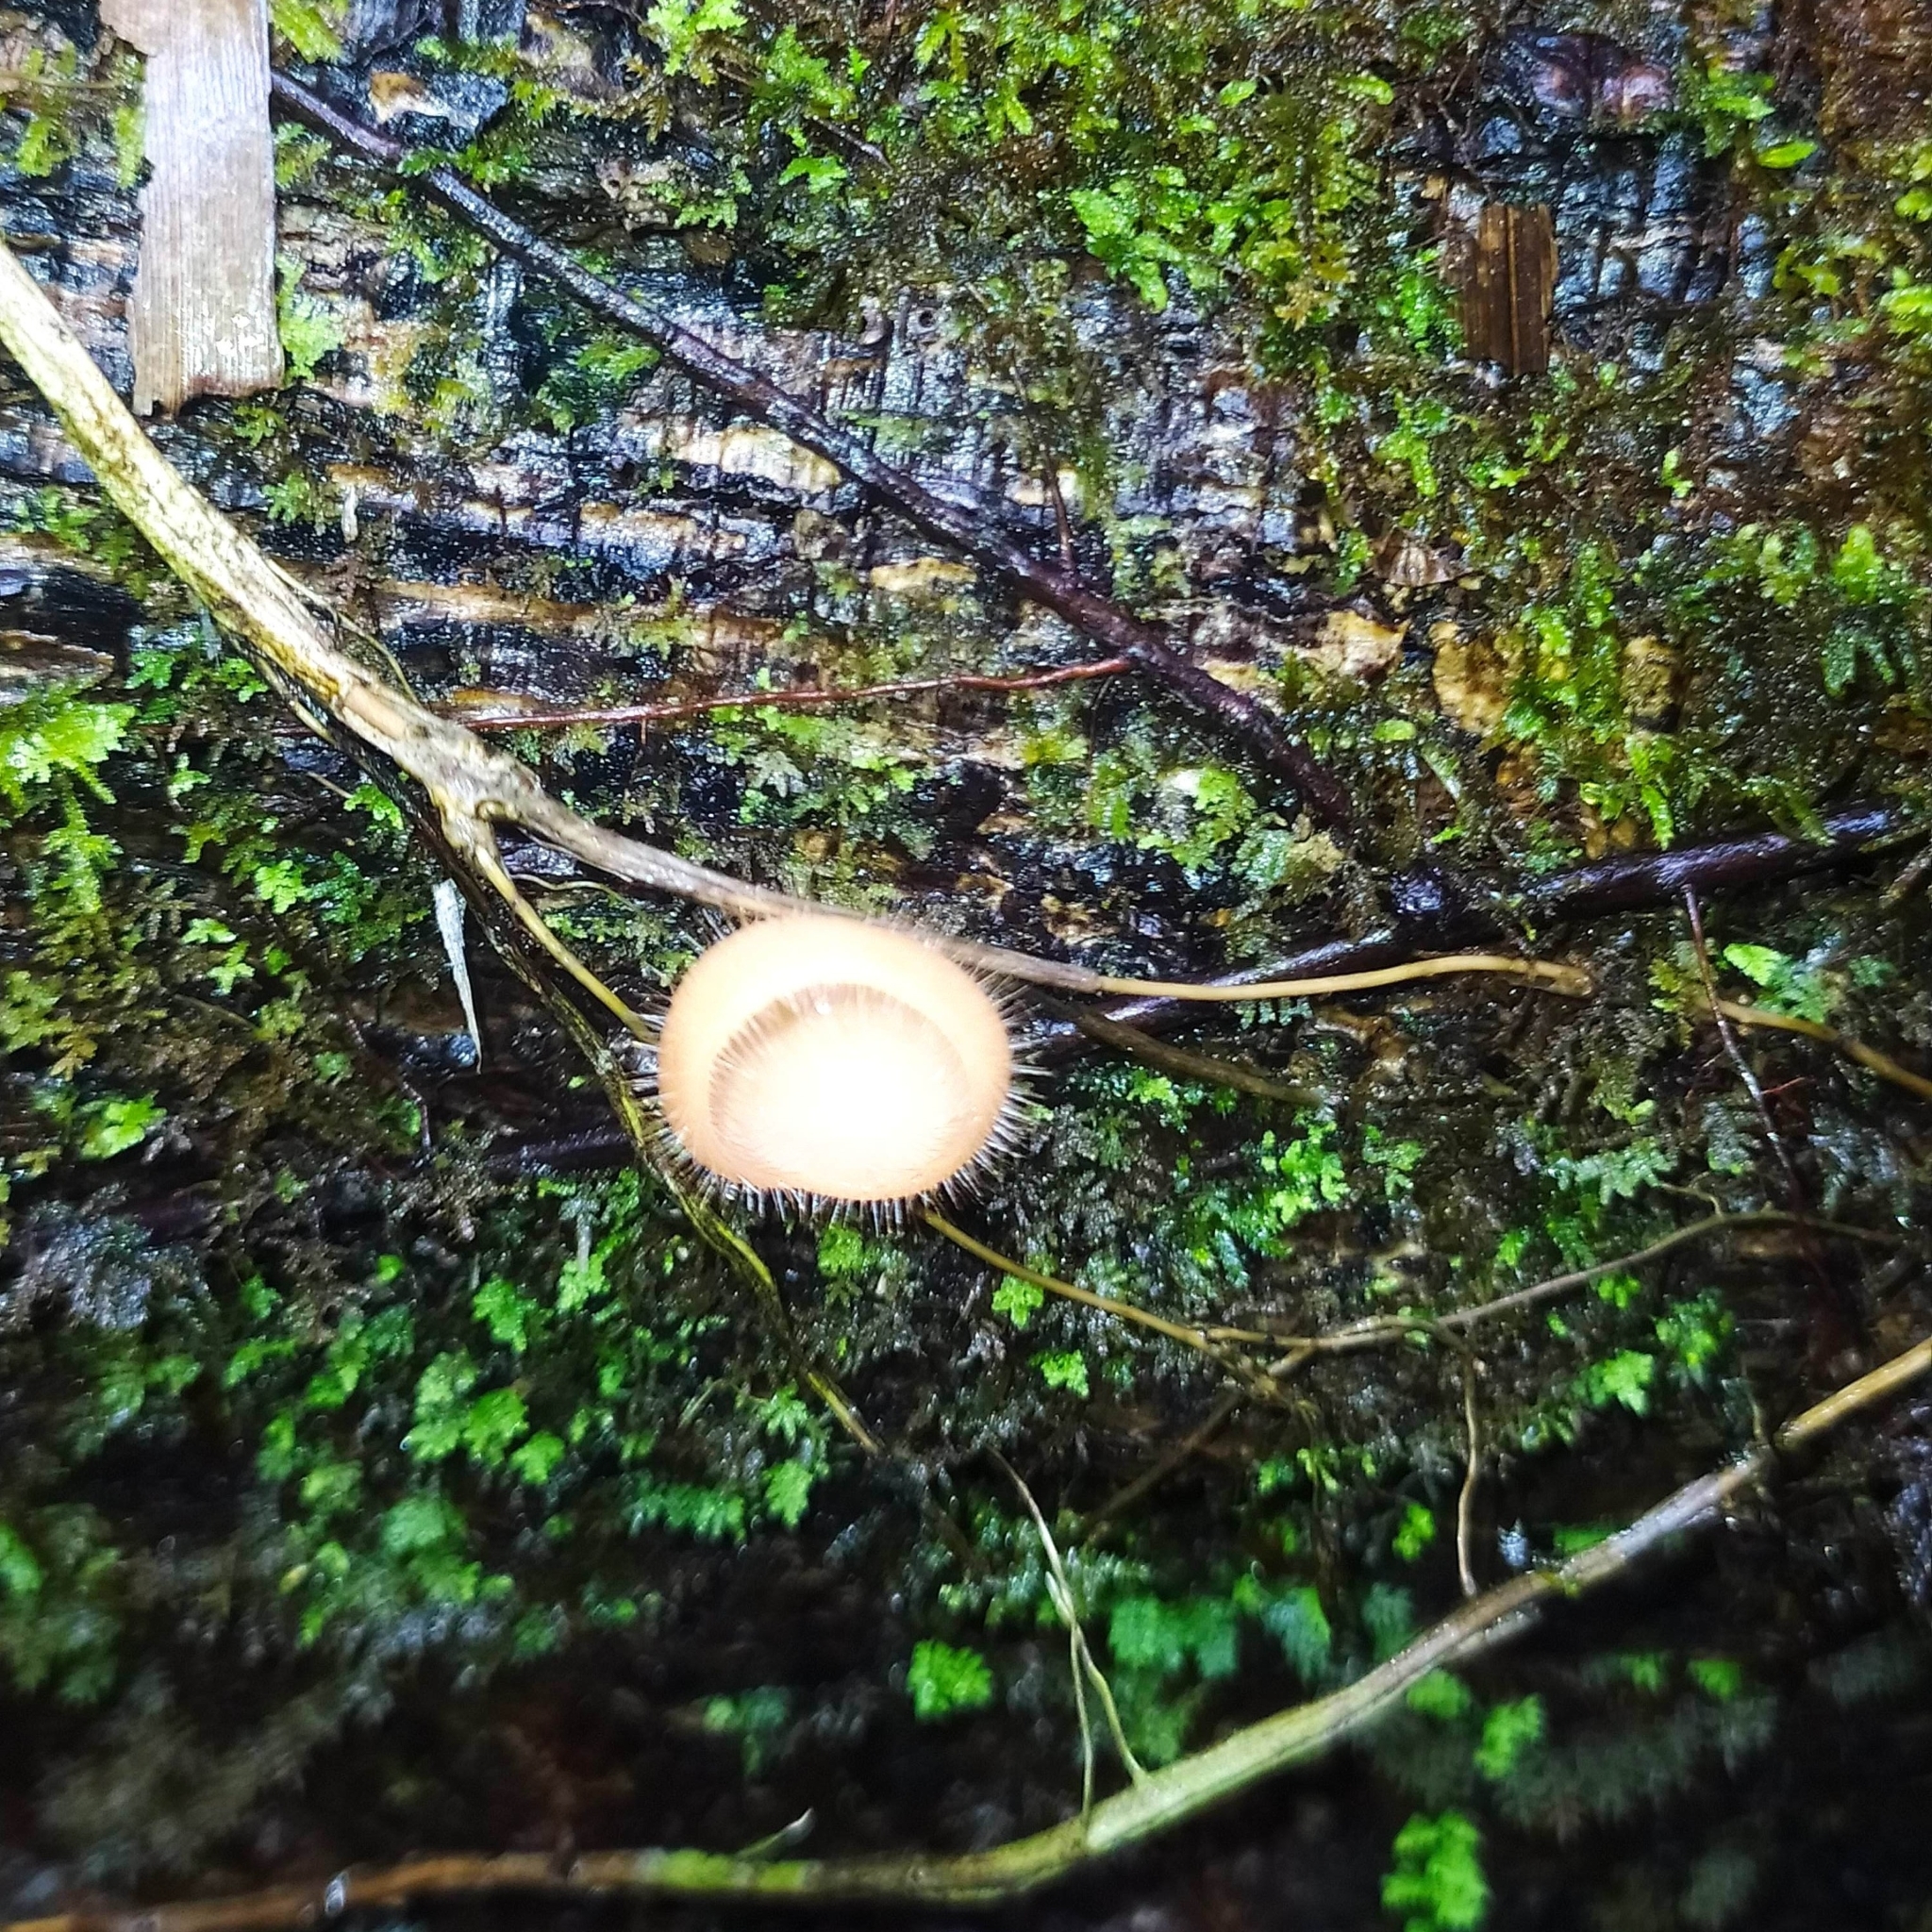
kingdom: Fungi
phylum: Ascomycota
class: Pezizomycetes
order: Pezizales
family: Sarcoscyphaceae
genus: Cookeina
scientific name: Cookeina tricholoma
